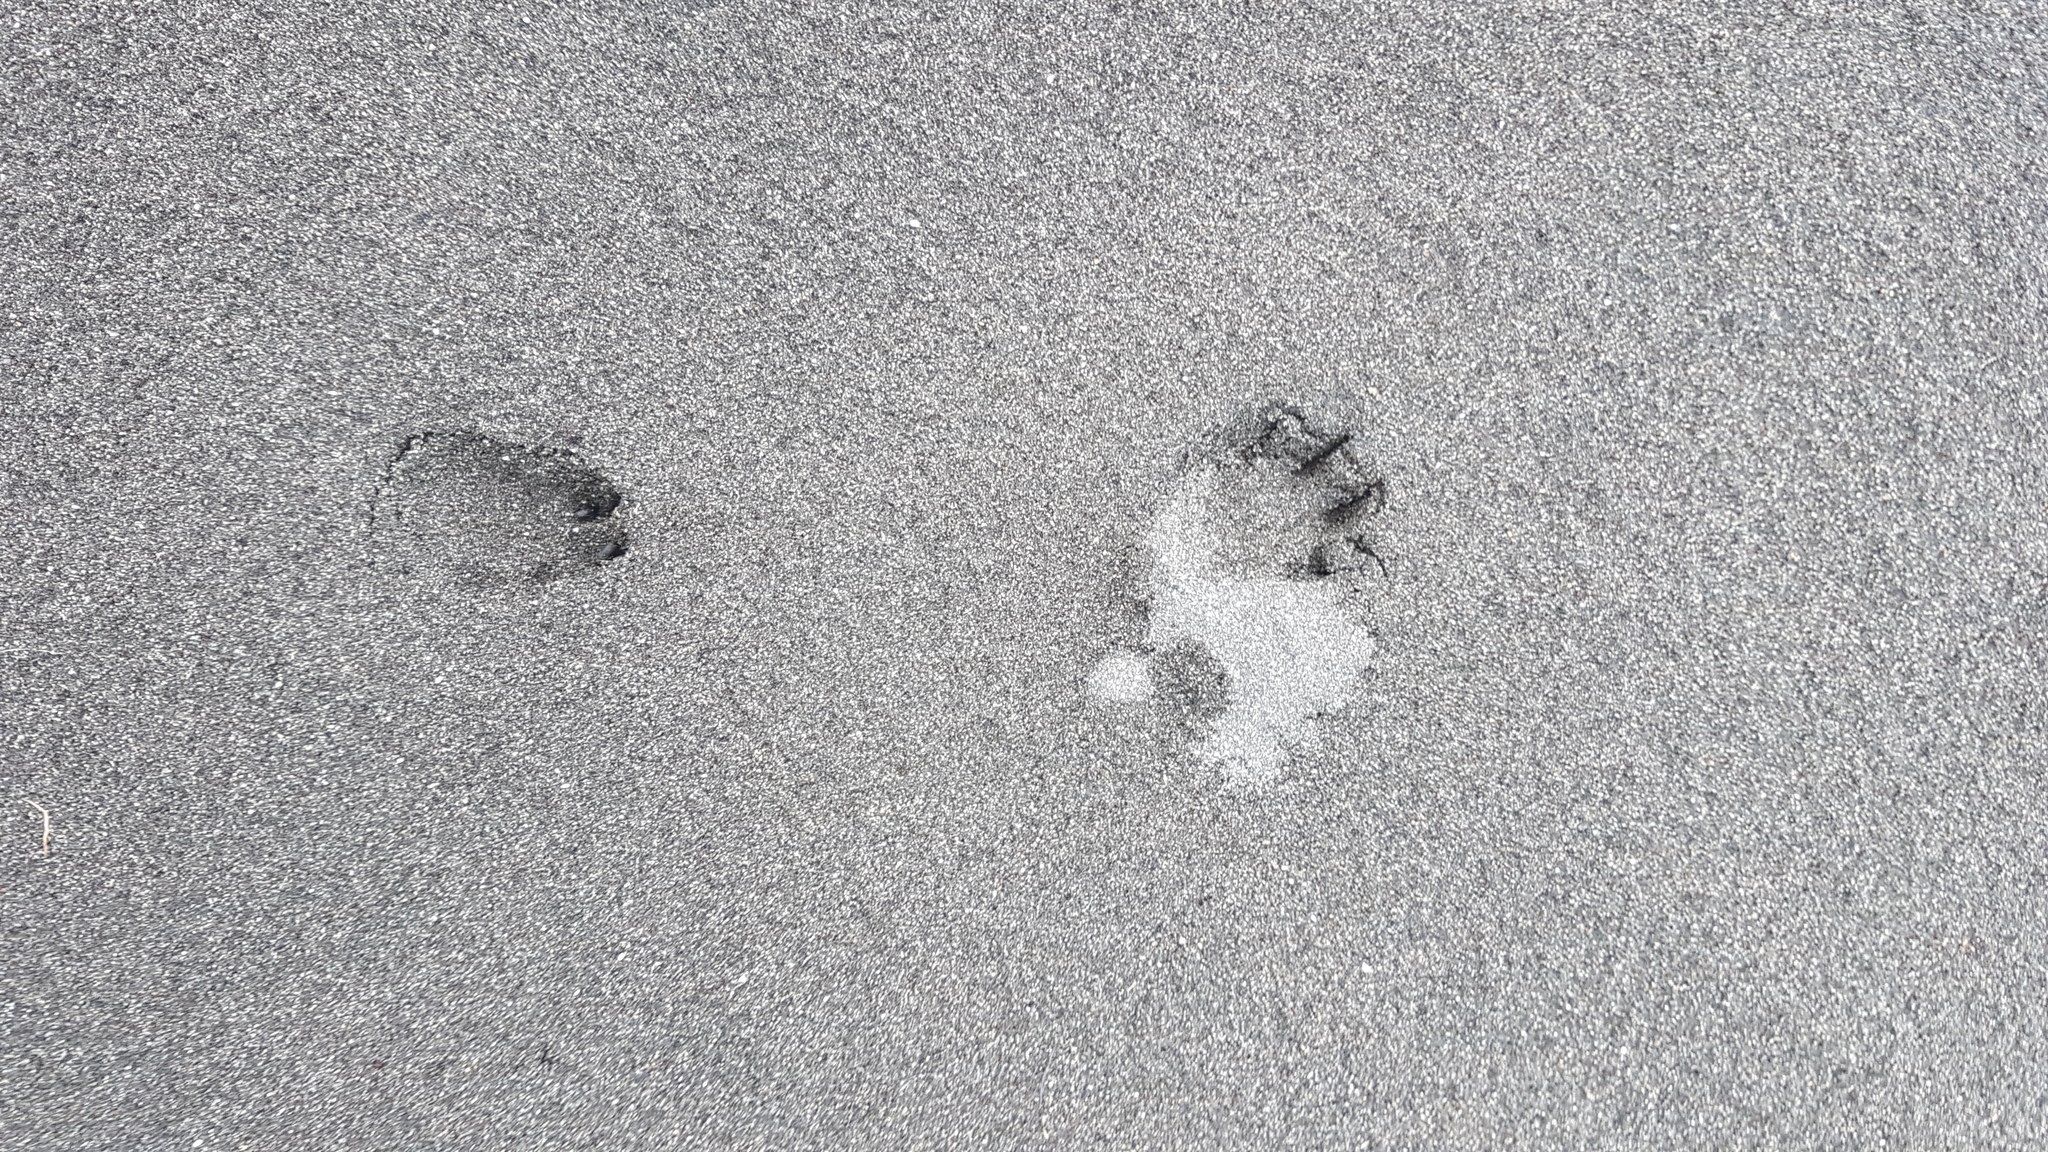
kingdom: Animalia
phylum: Chordata
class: Mammalia
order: Lagomorpha
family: Leporidae
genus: Oryctolagus
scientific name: Oryctolagus cuniculus
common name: European rabbit
